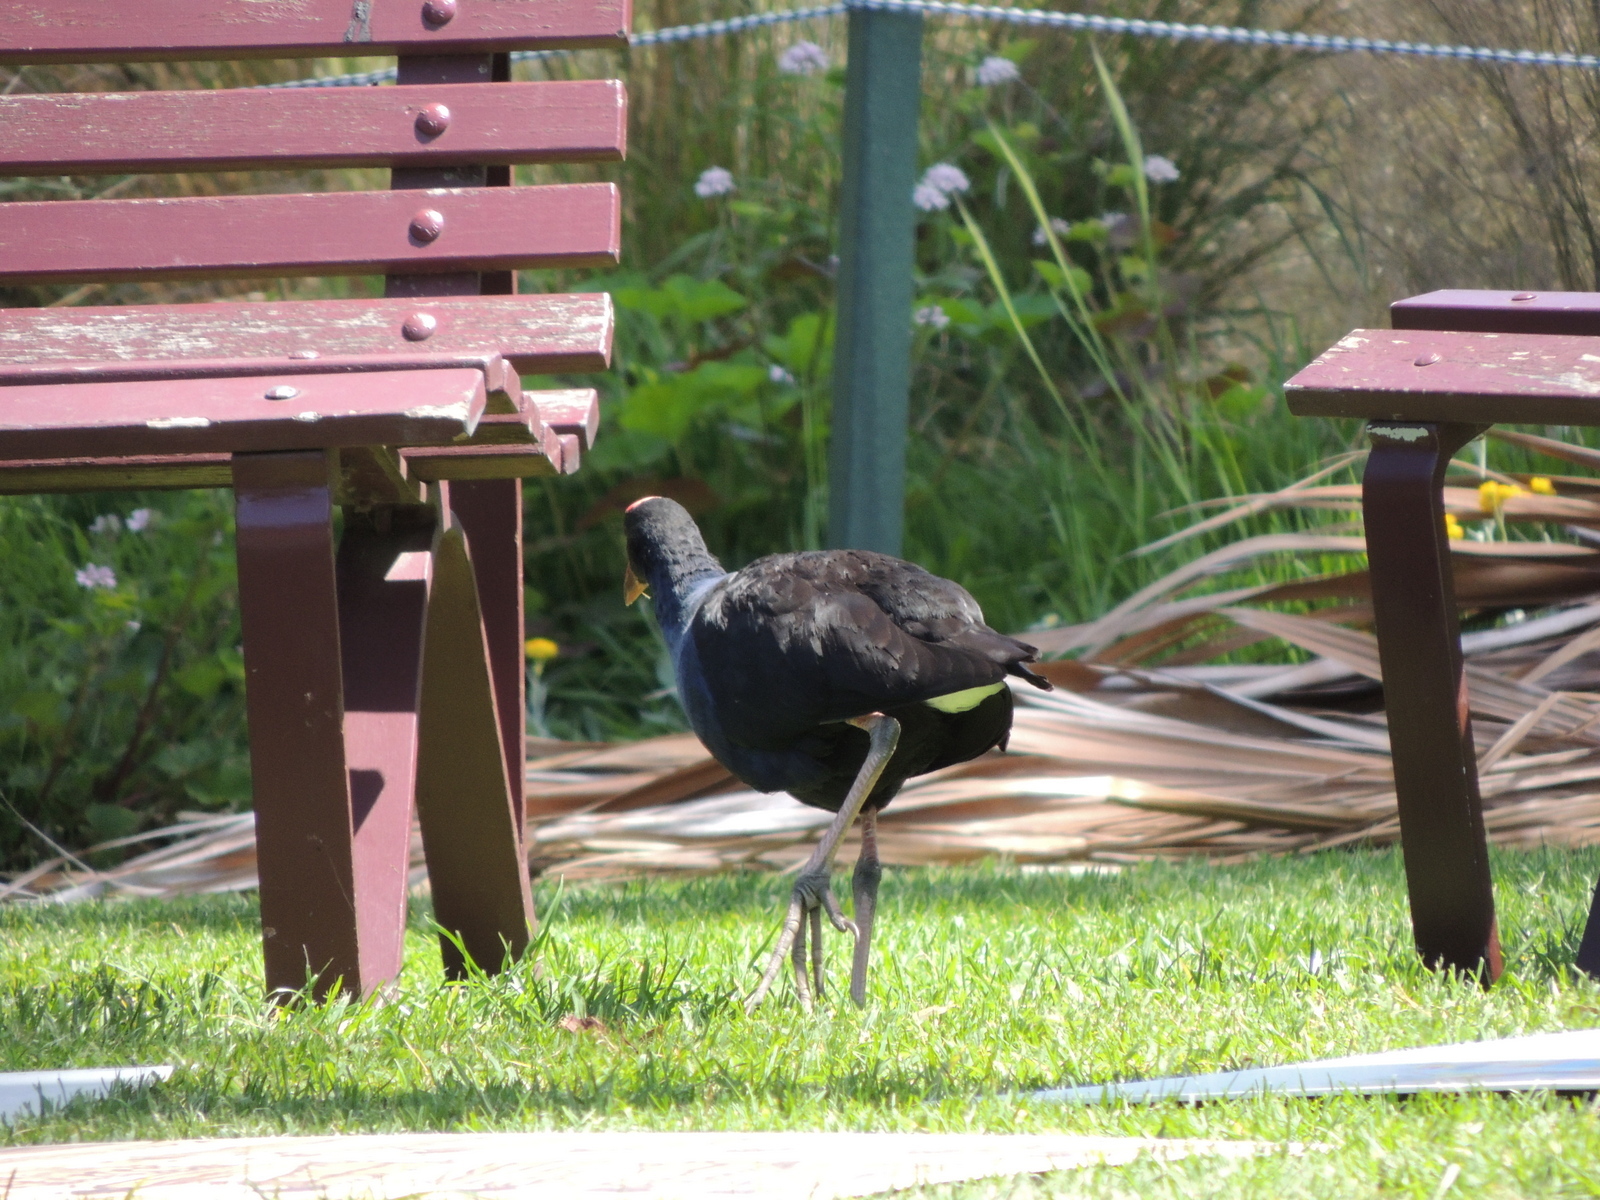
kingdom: Animalia
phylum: Chordata
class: Aves
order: Gruiformes
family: Rallidae
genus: Porphyrio
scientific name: Porphyrio melanotus
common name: Australasian swamphen
